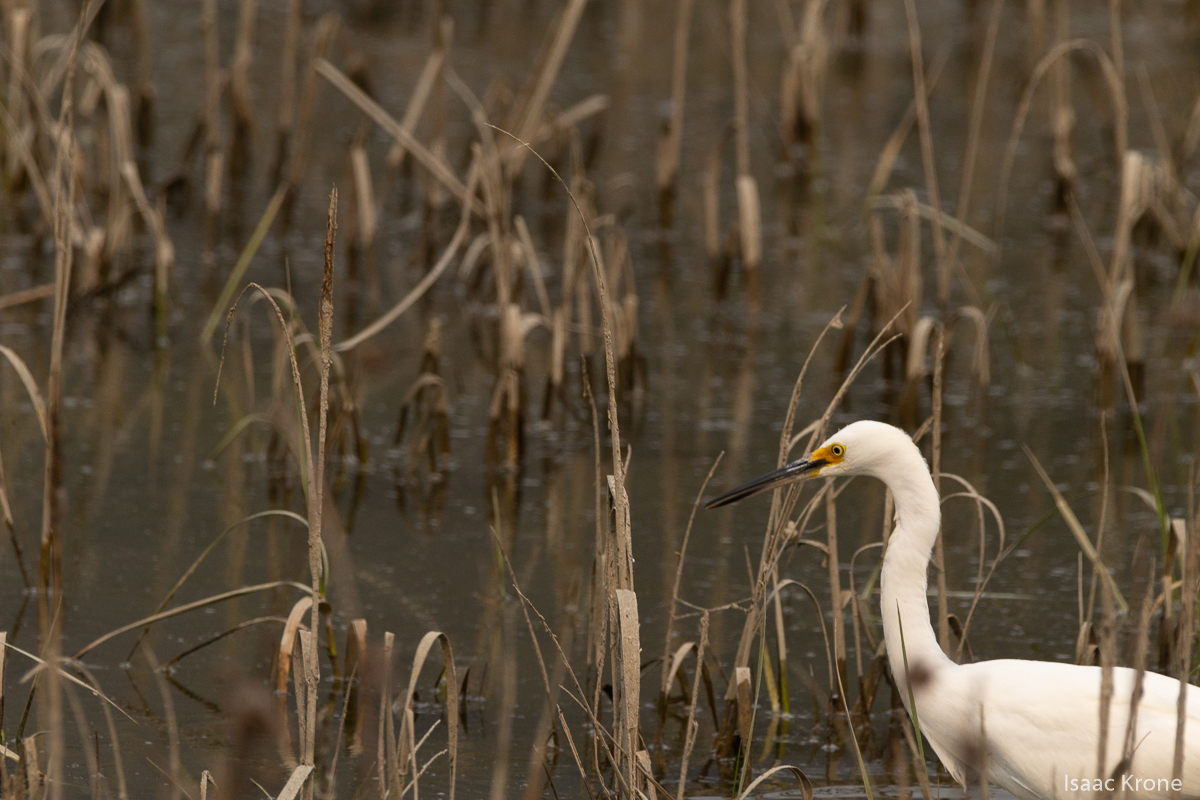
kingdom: Animalia
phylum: Chordata
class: Aves
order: Pelecaniformes
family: Ardeidae
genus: Egretta
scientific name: Egretta thula
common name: Snowy egret
